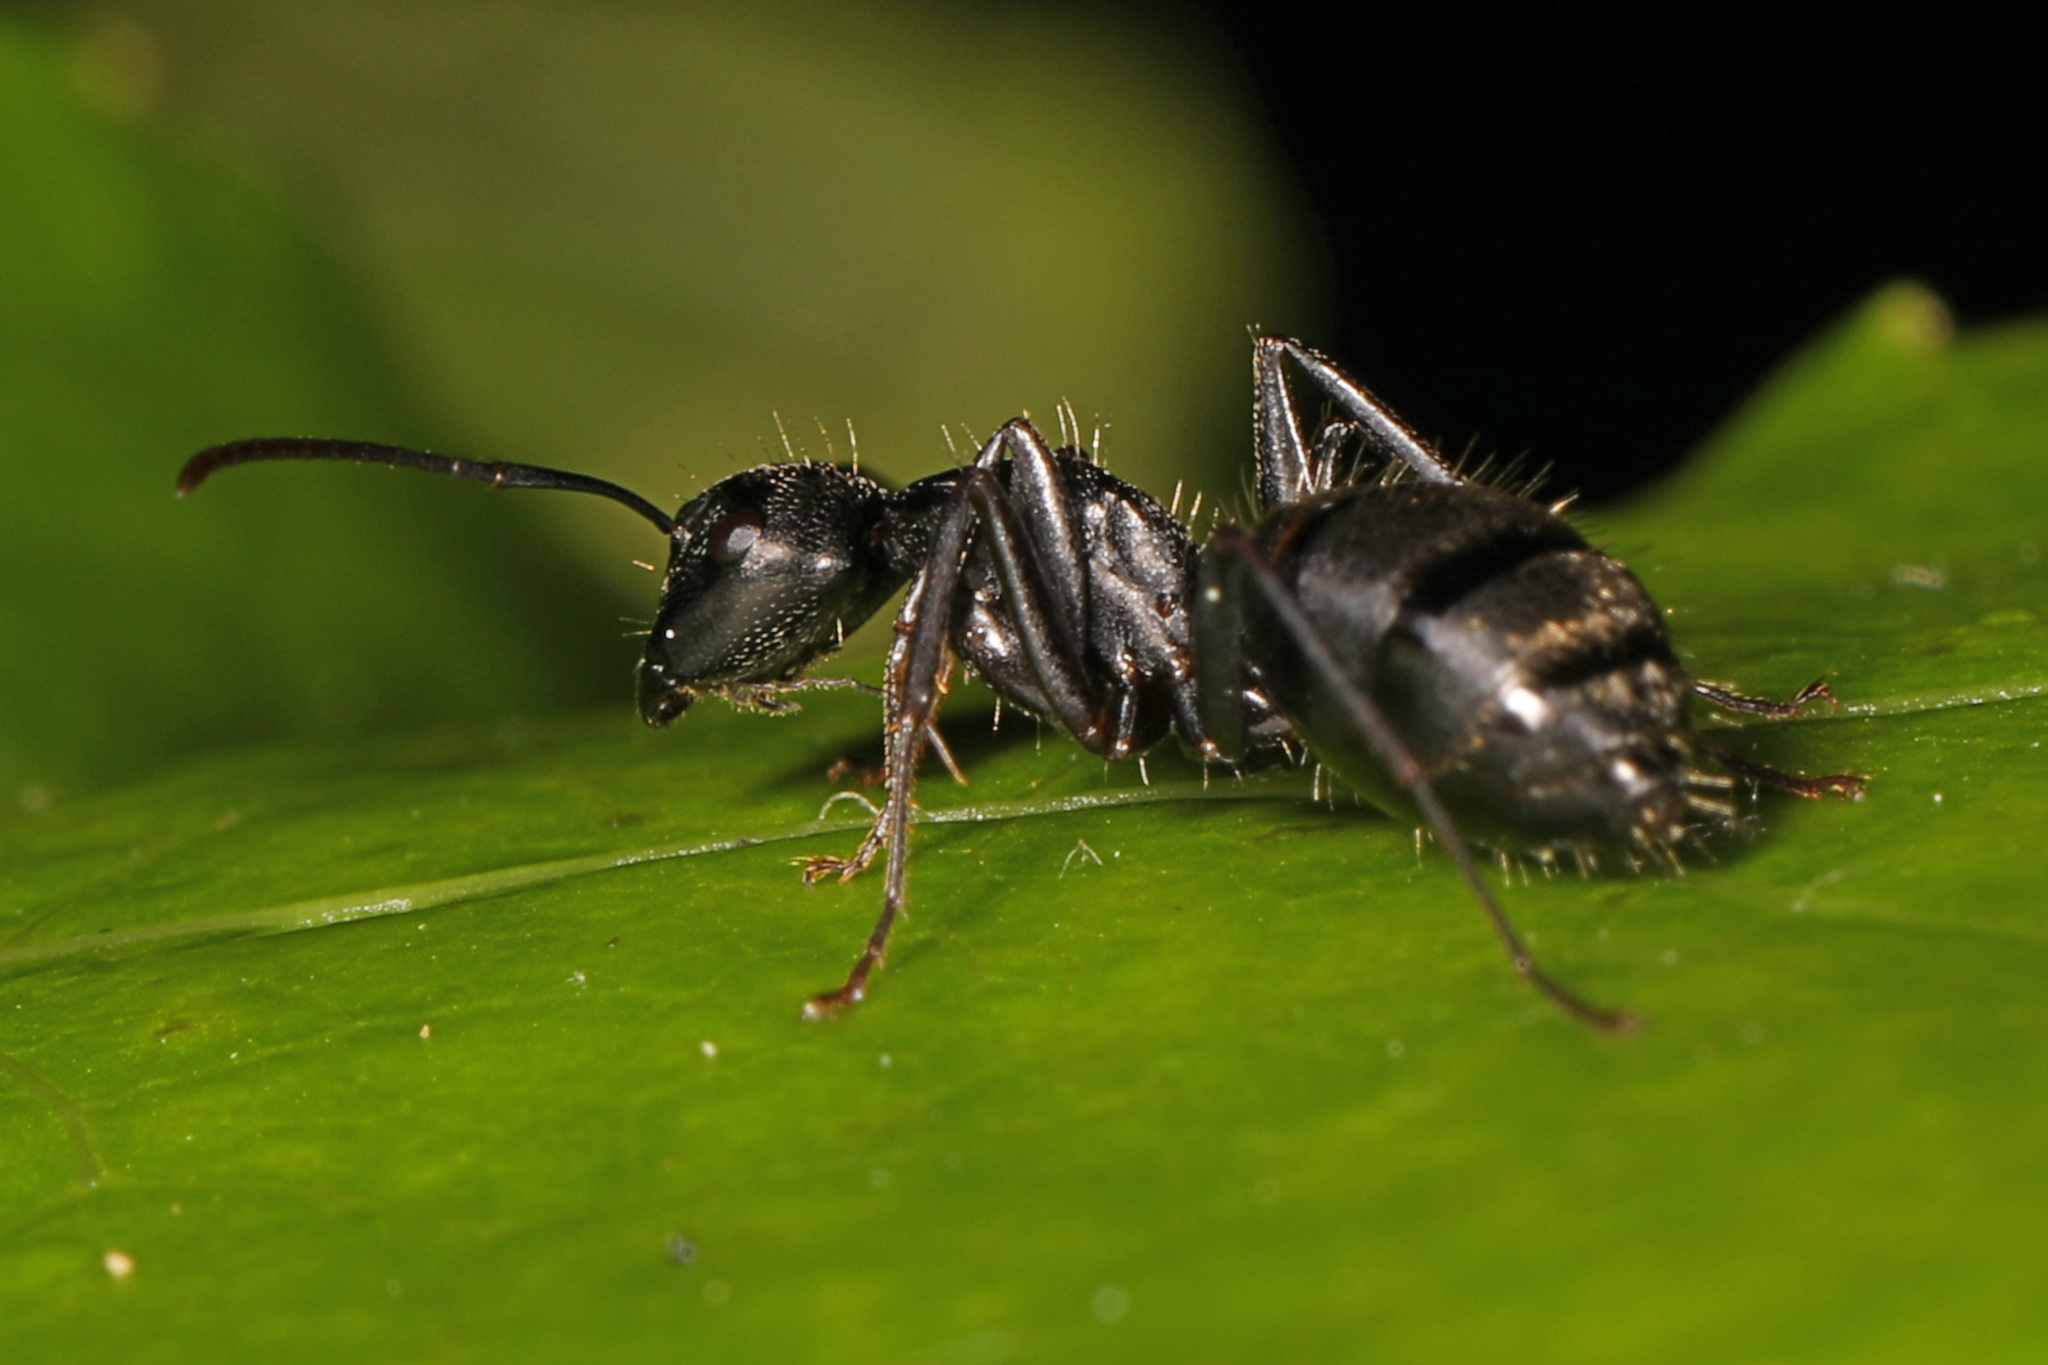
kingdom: Animalia
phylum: Arthropoda
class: Insecta
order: Hymenoptera
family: Formicidae
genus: Camponotus
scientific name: Camponotus pennsylvanicus
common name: Black carpenter ant
